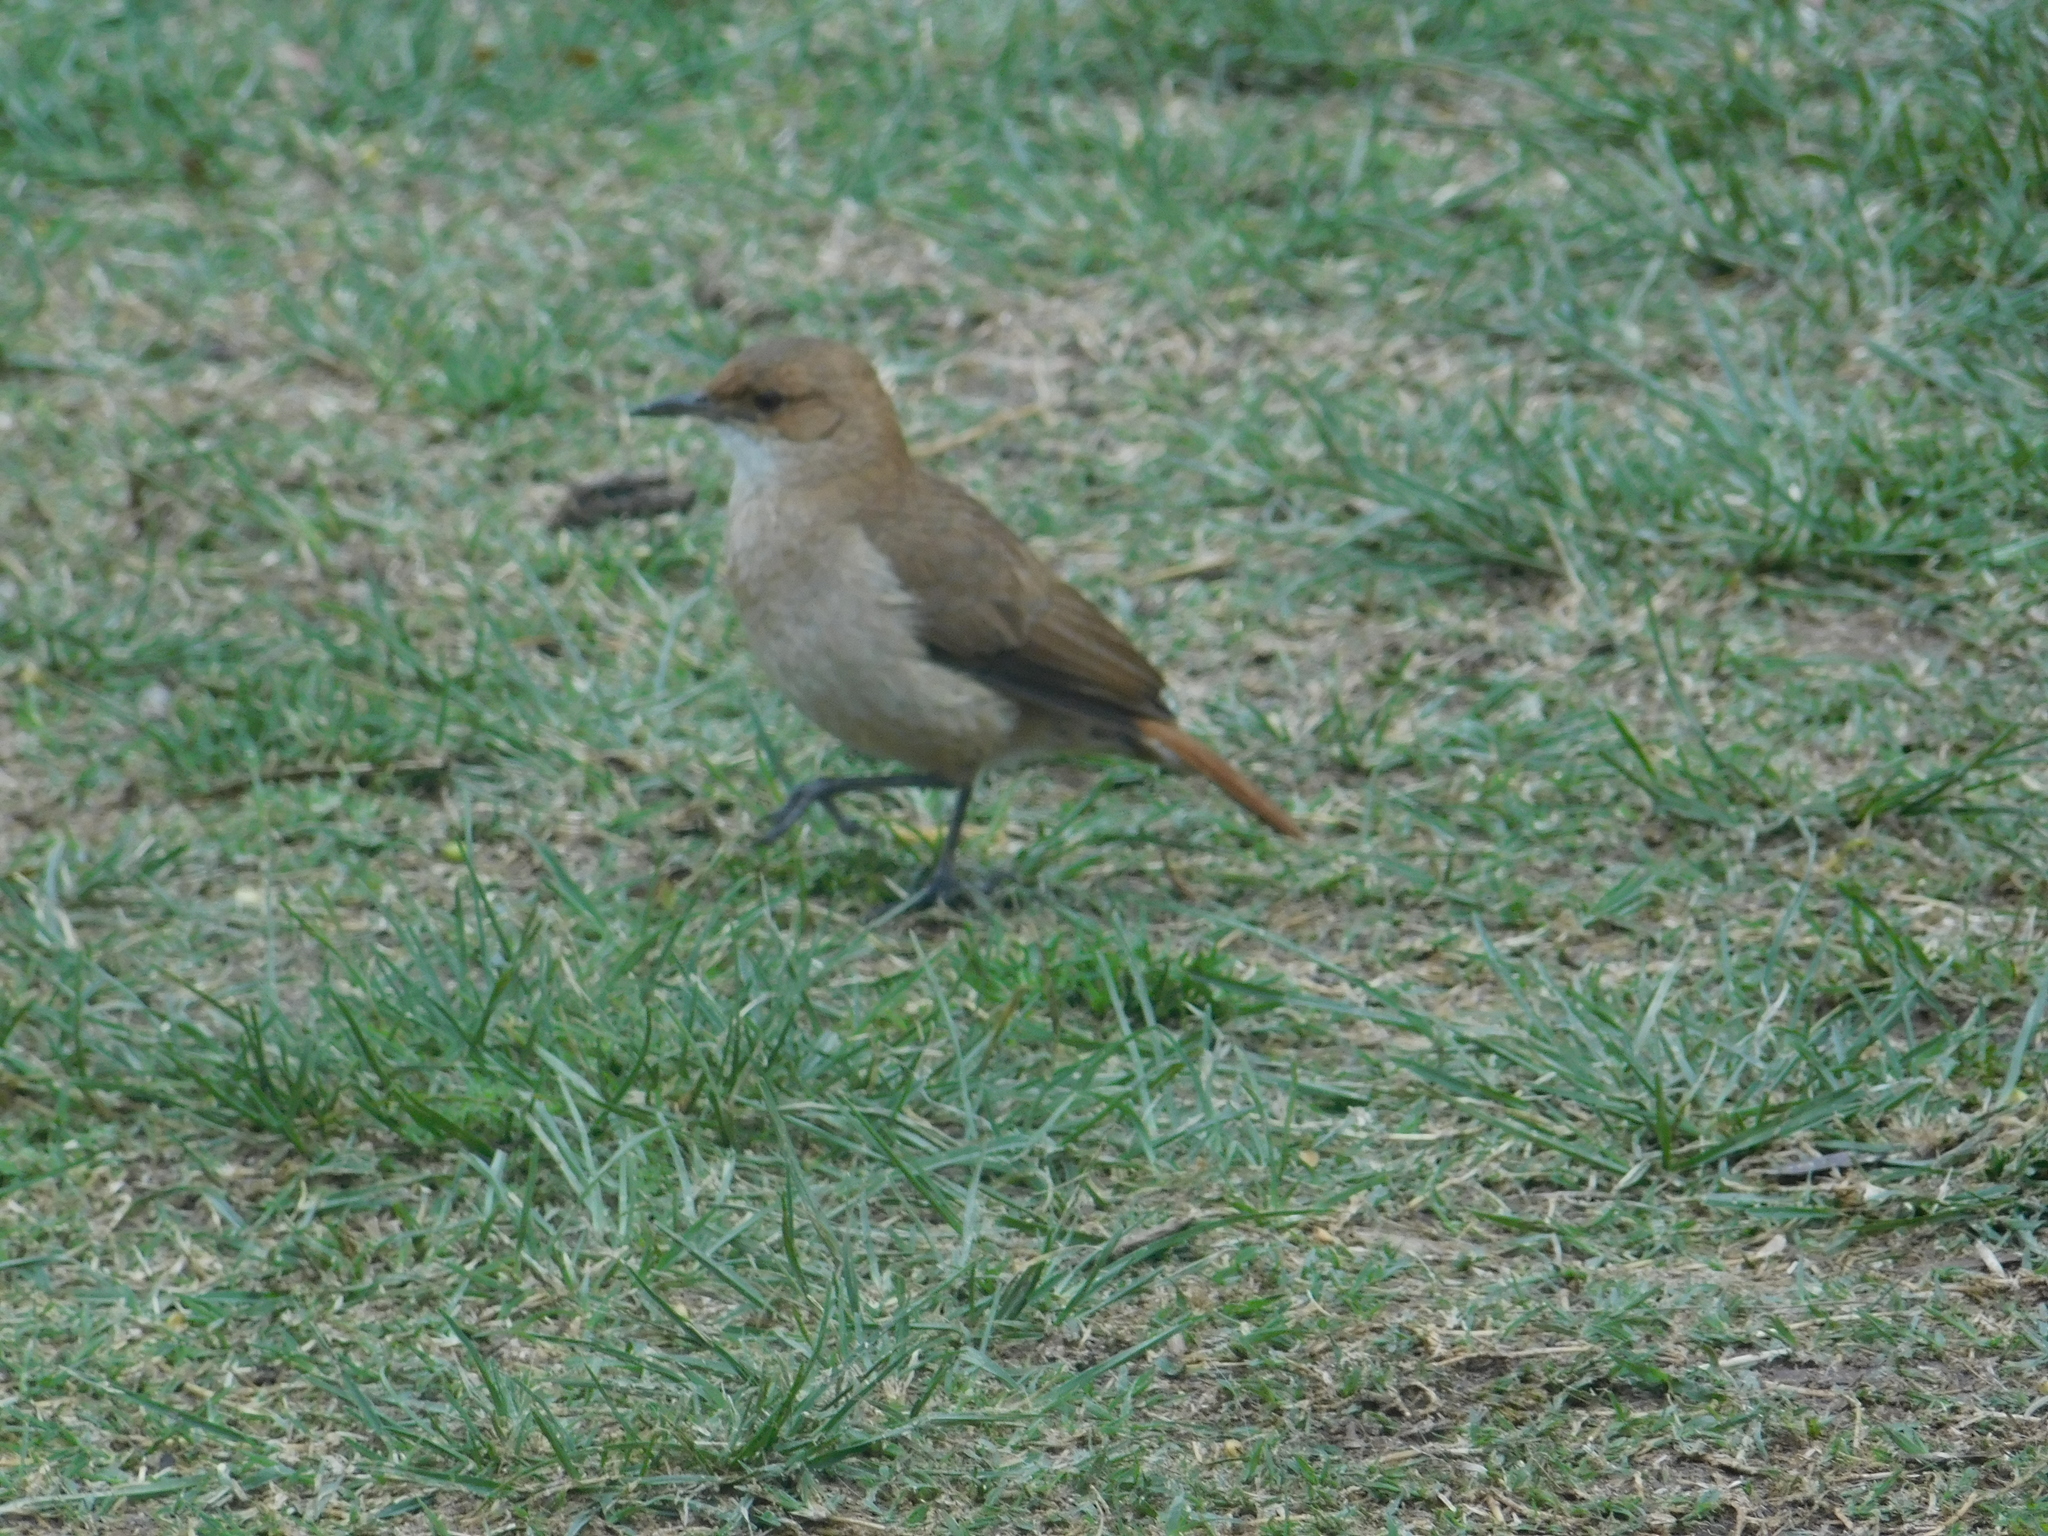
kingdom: Animalia
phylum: Chordata
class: Aves
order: Passeriformes
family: Furnariidae
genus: Furnarius
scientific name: Furnarius rufus
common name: Rufous hornero
